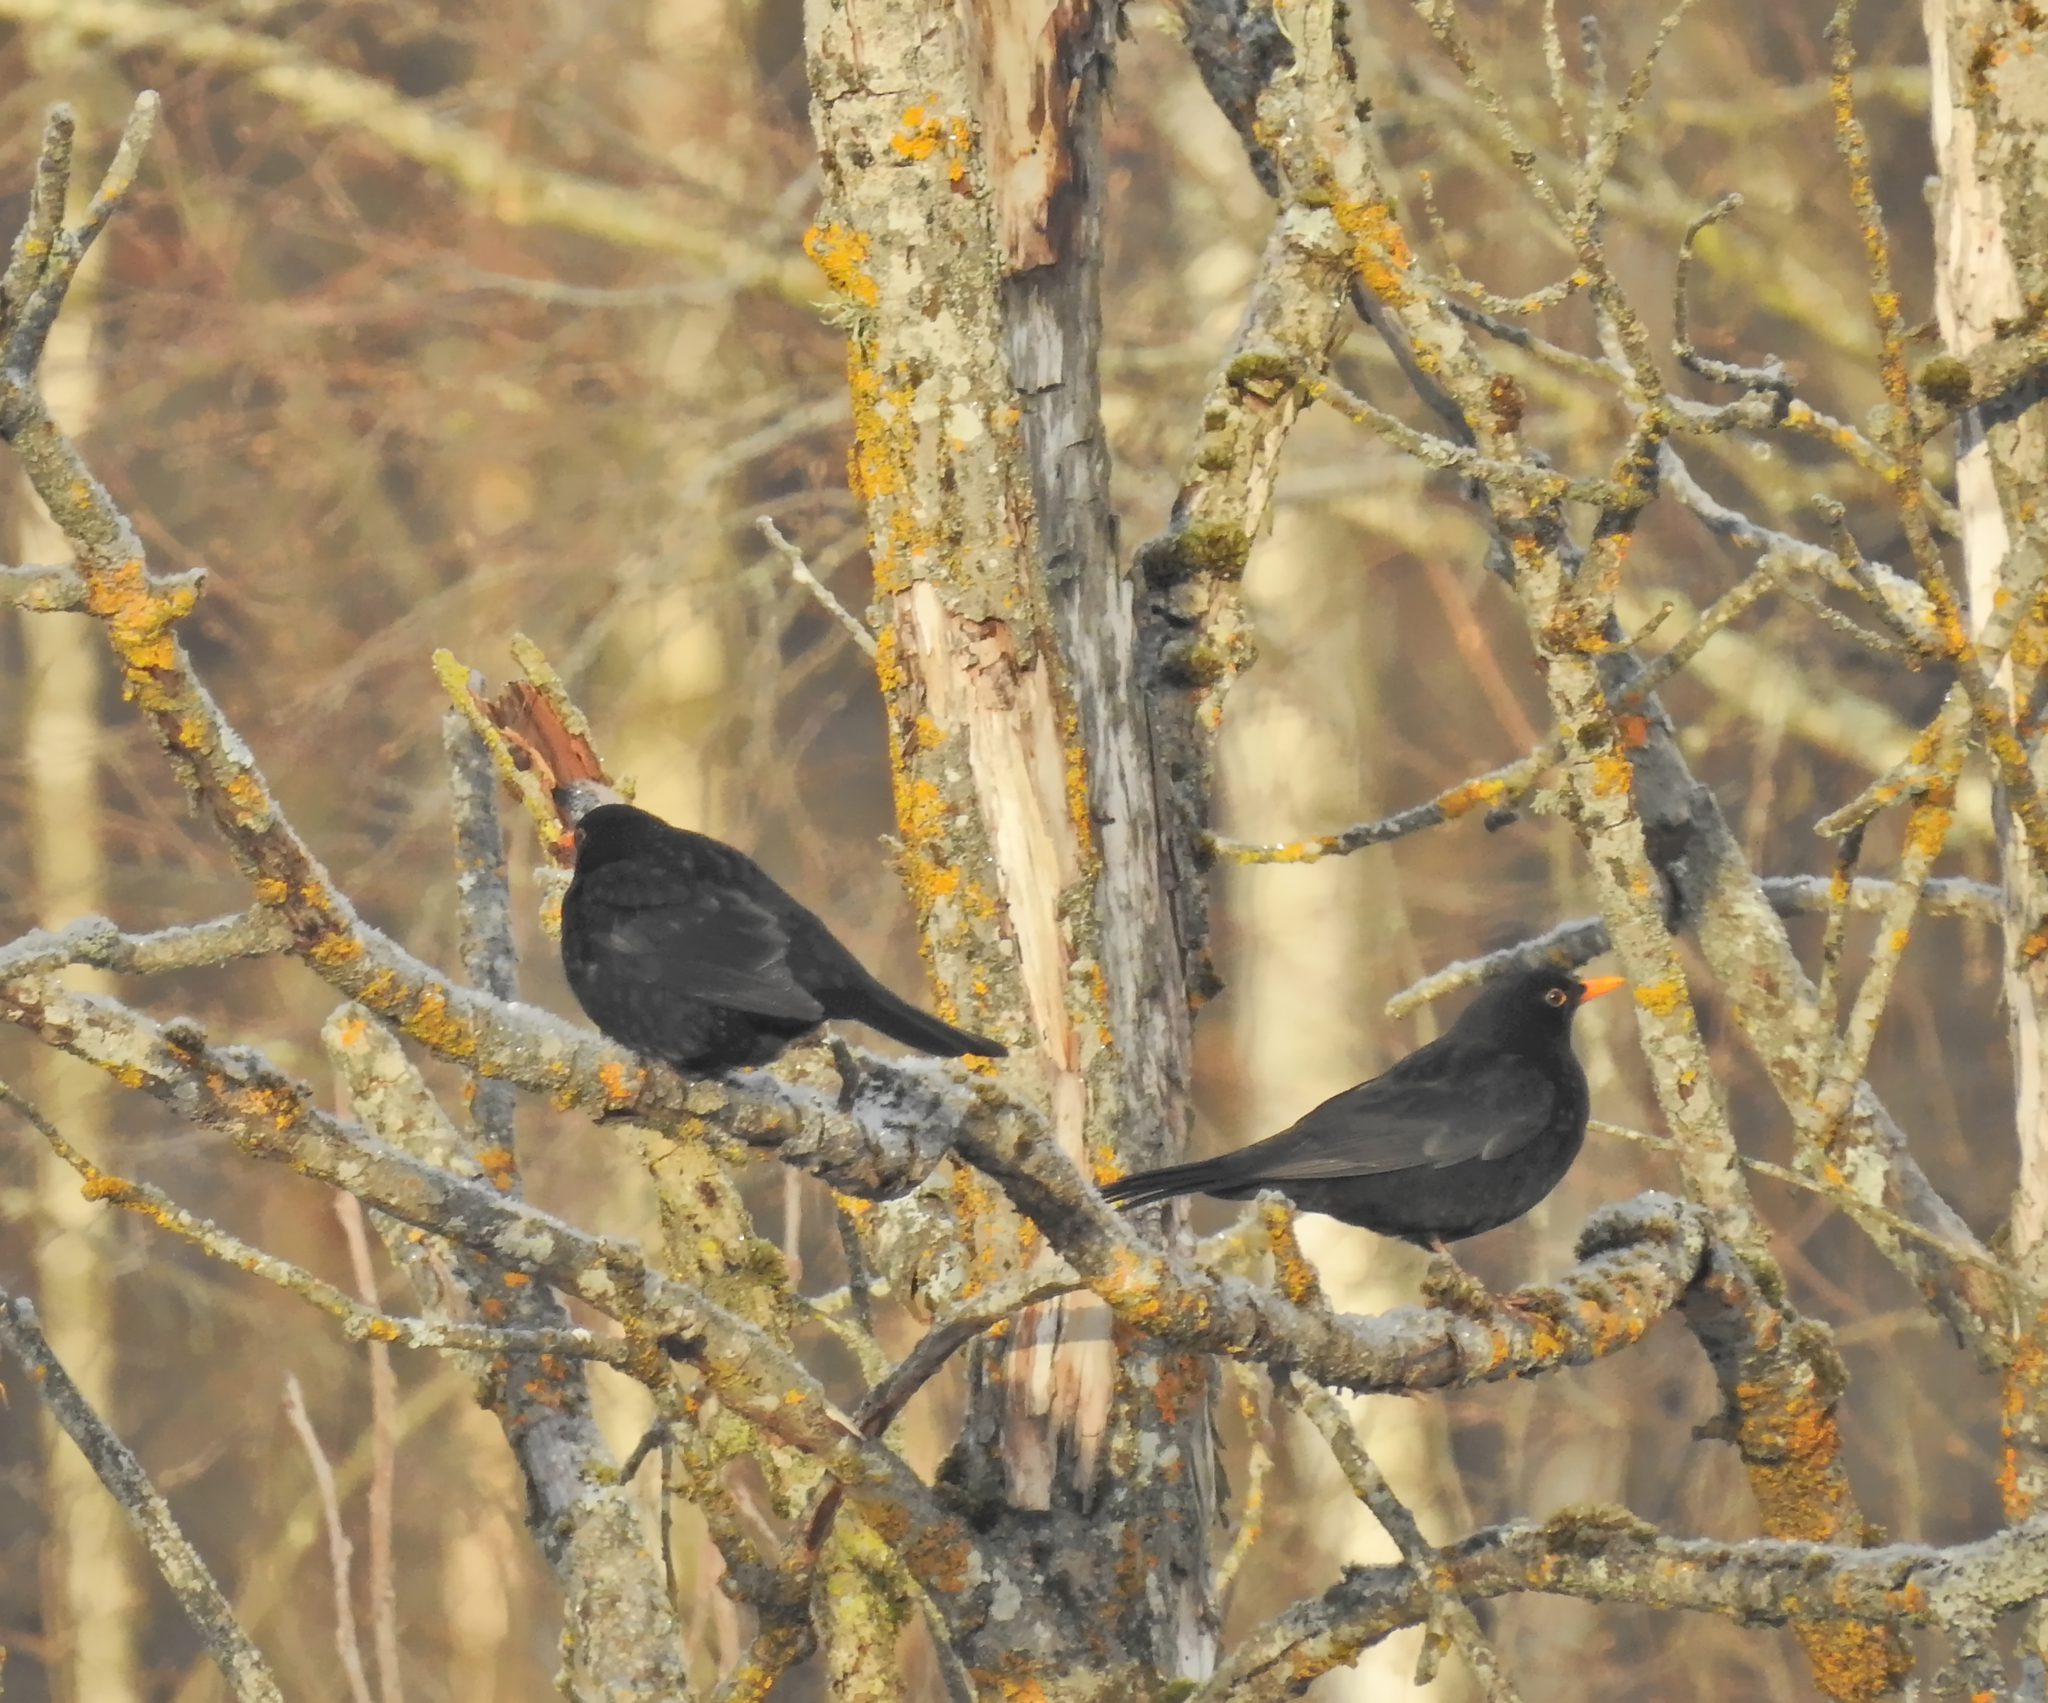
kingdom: Animalia
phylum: Chordata
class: Aves
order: Passeriformes
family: Turdidae
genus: Turdus
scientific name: Turdus merula
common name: Common blackbird
